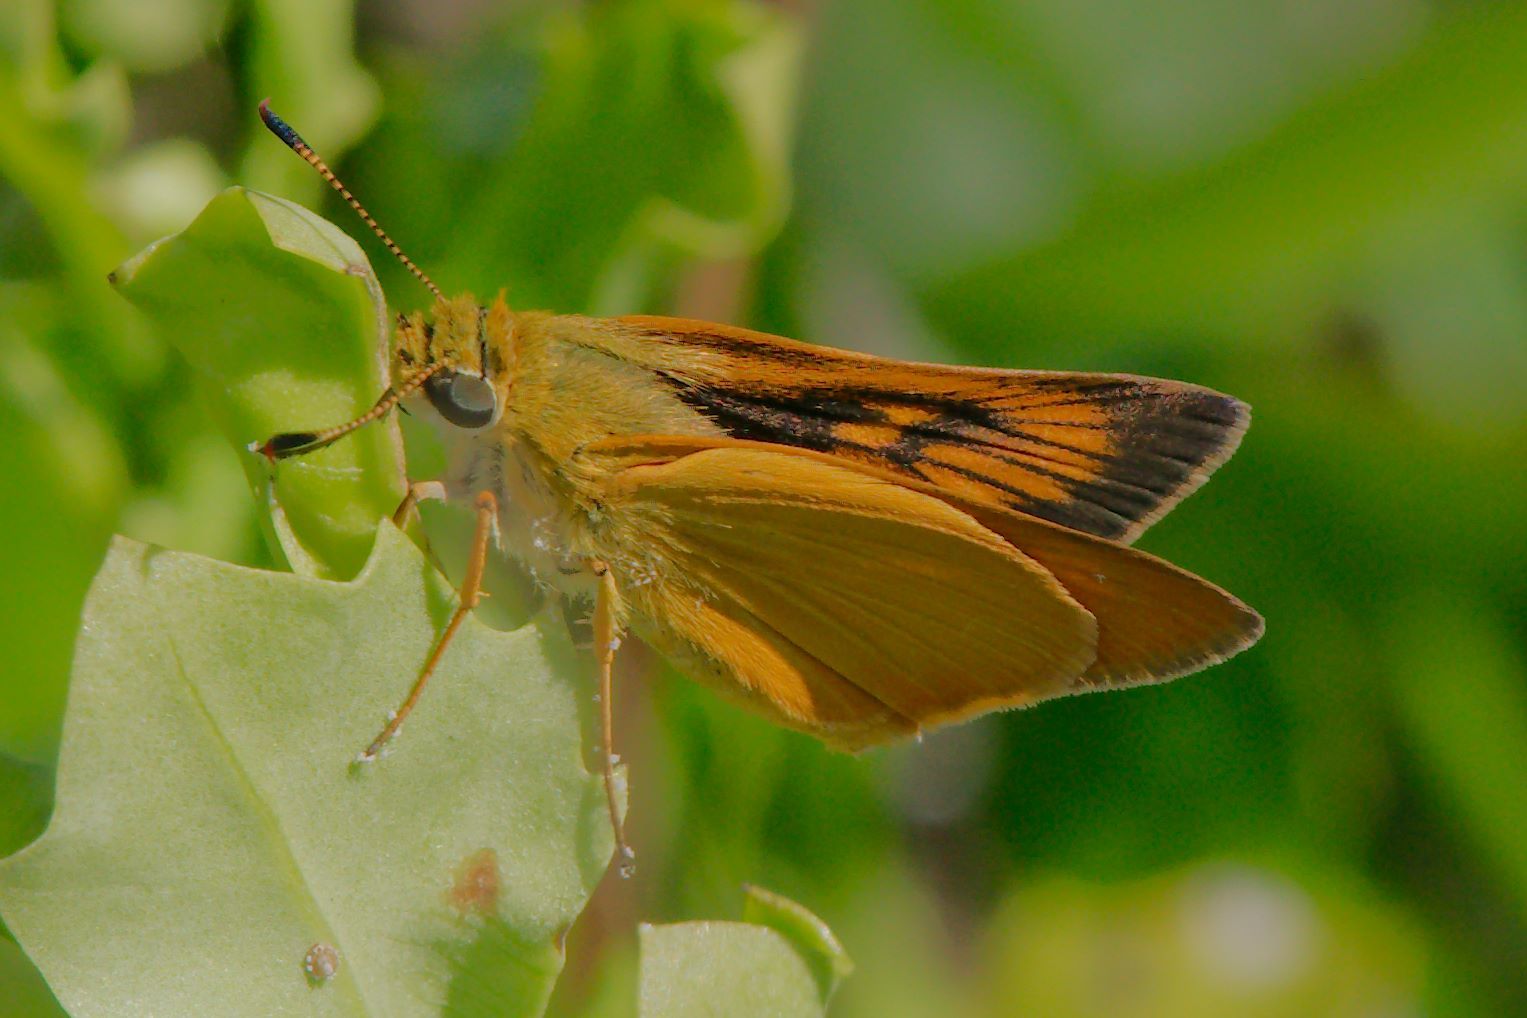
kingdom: Animalia
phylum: Arthropoda
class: Insecta
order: Lepidoptera
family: Hesperiidae
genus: Atrytone
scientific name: Atrytone delaware
